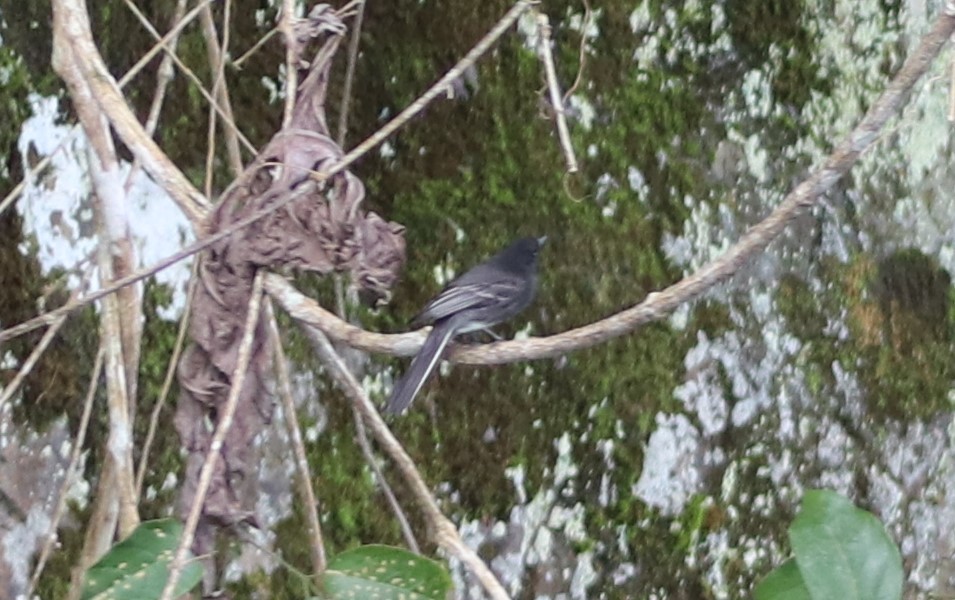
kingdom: Animalia
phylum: Chordata
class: Aves
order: Passeriformes
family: Tyrannidae
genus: Sayornis
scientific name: Sayornis nigricans
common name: Black phoebe
